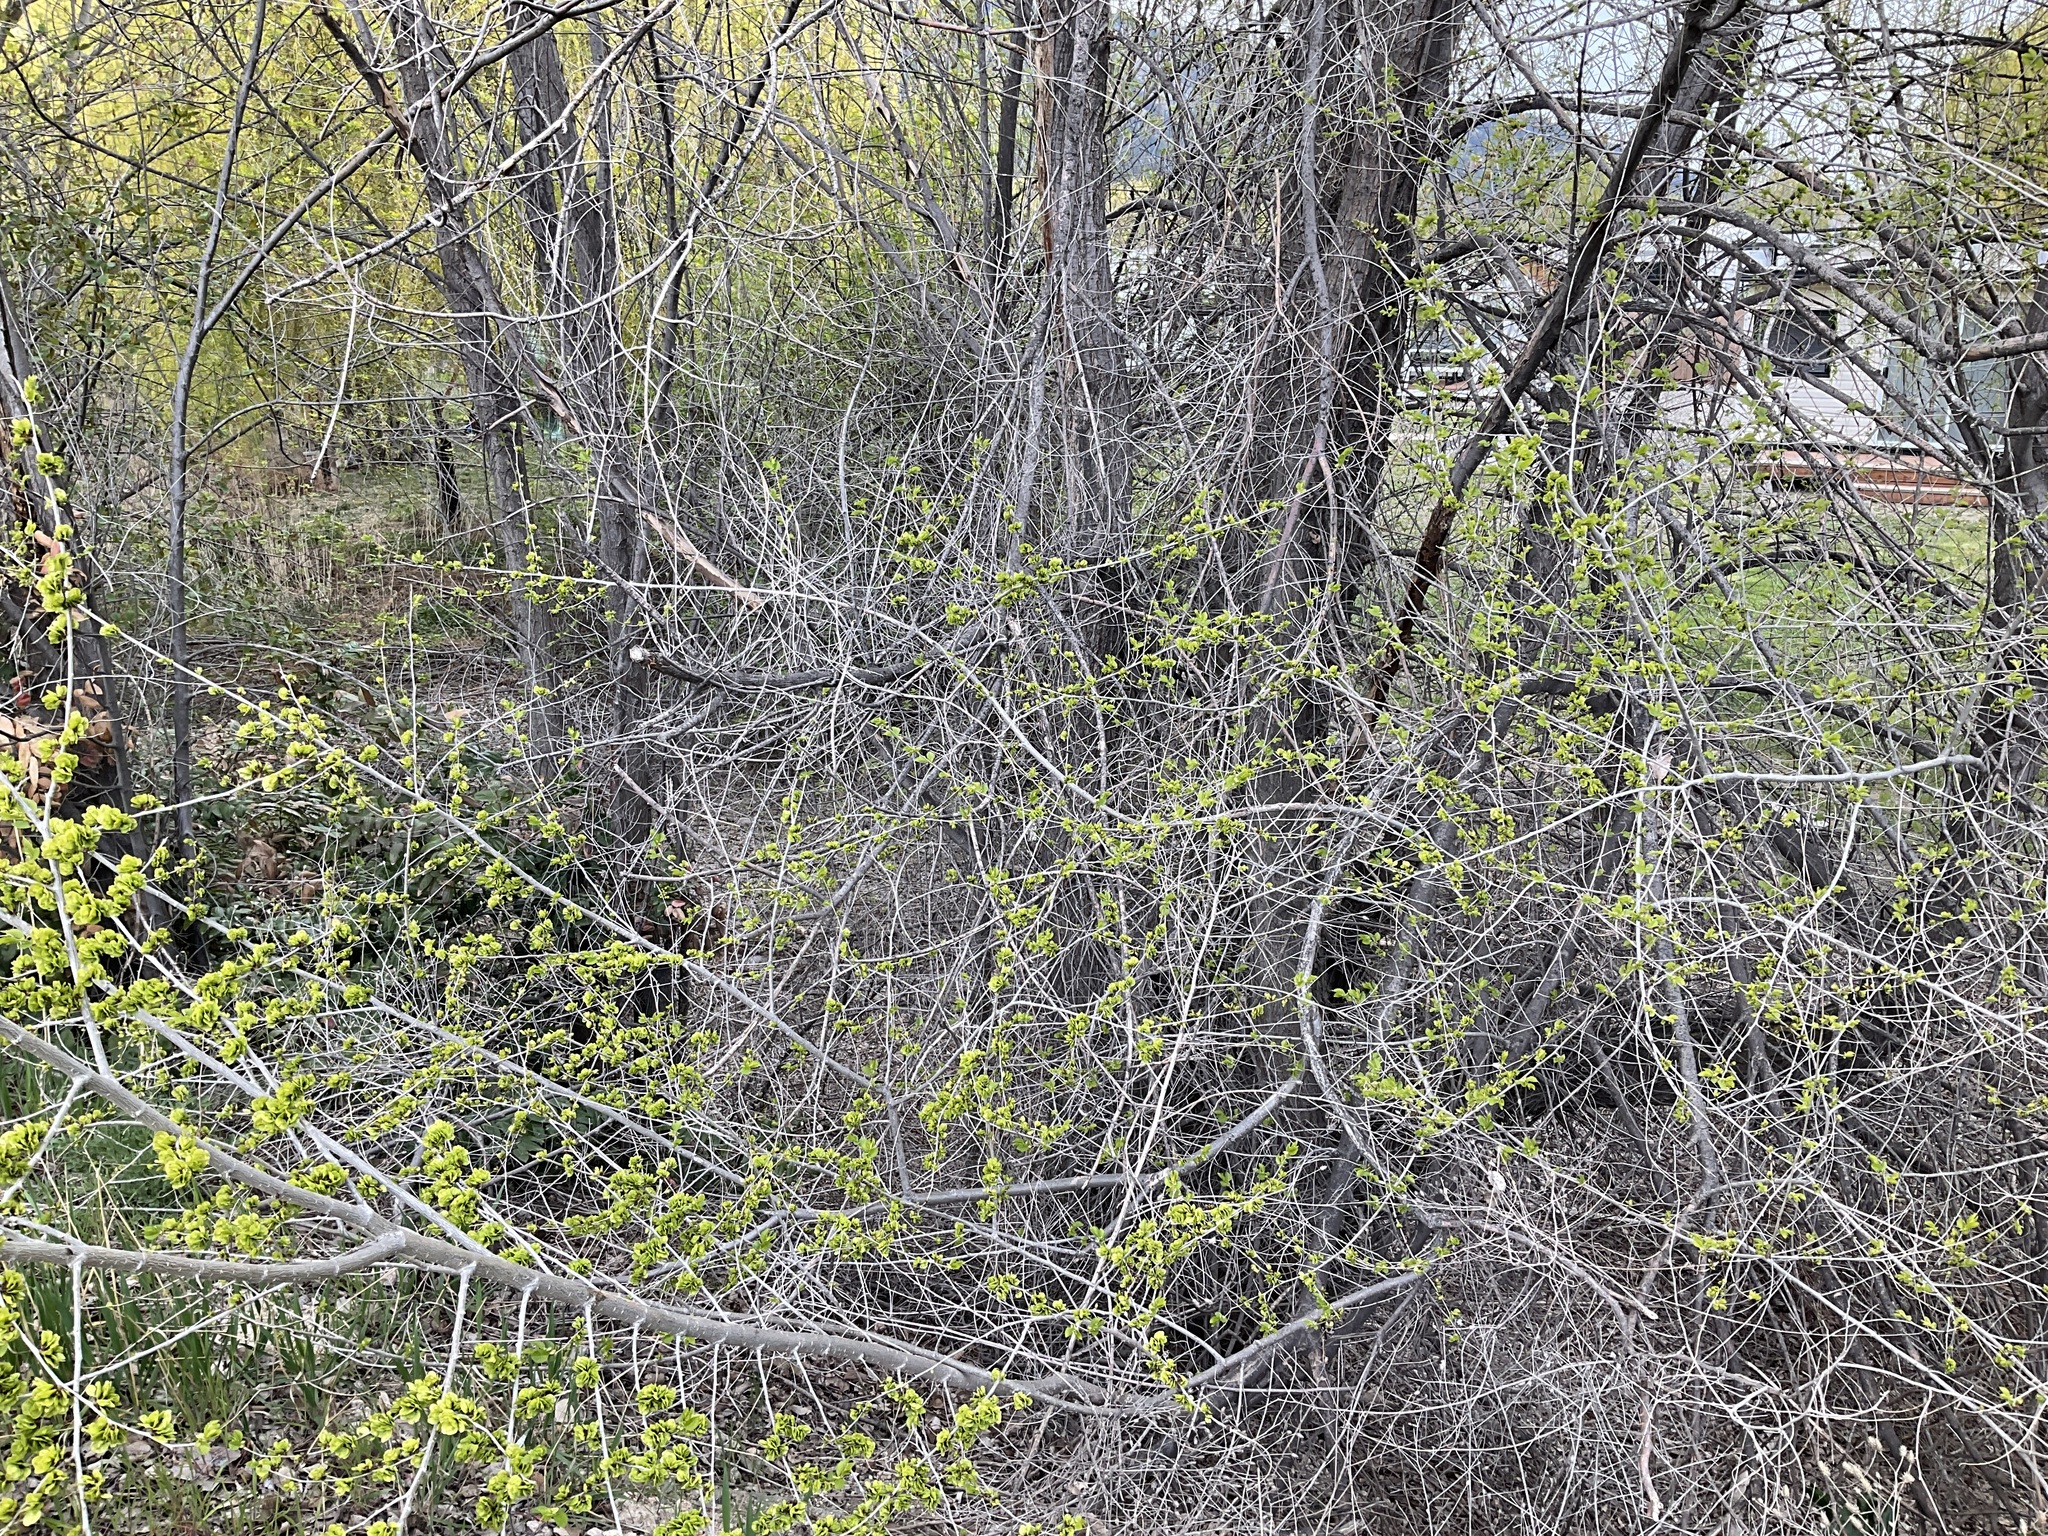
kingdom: Plantae
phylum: Tracheophyta
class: Magnoliopsida
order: Rosales
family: Ulmaceae
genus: Ulmus
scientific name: Ulmus pumila
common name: Siberian elm
